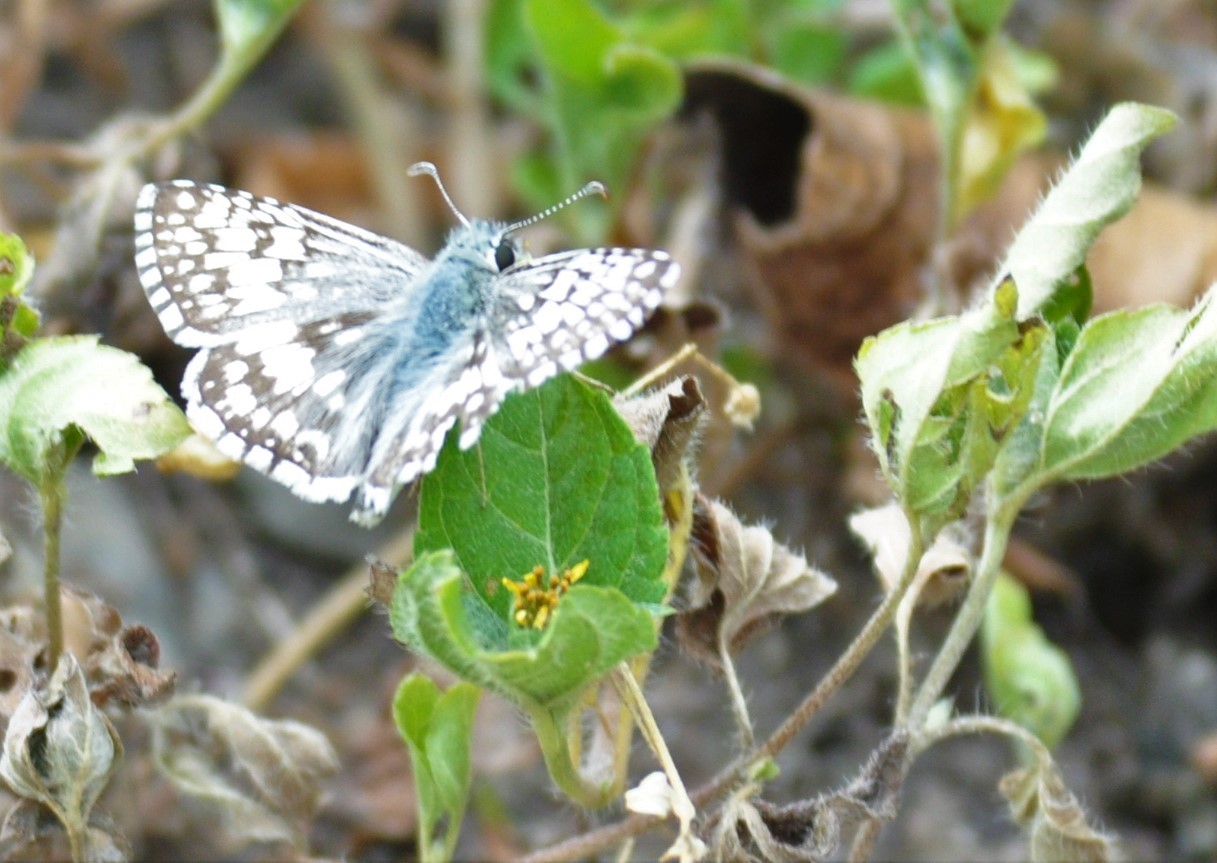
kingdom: Animalia
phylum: Arthropoda
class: Insecta
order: Lepidoptera
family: Hesperiidae
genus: Burnsius
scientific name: Burnsius albezens
